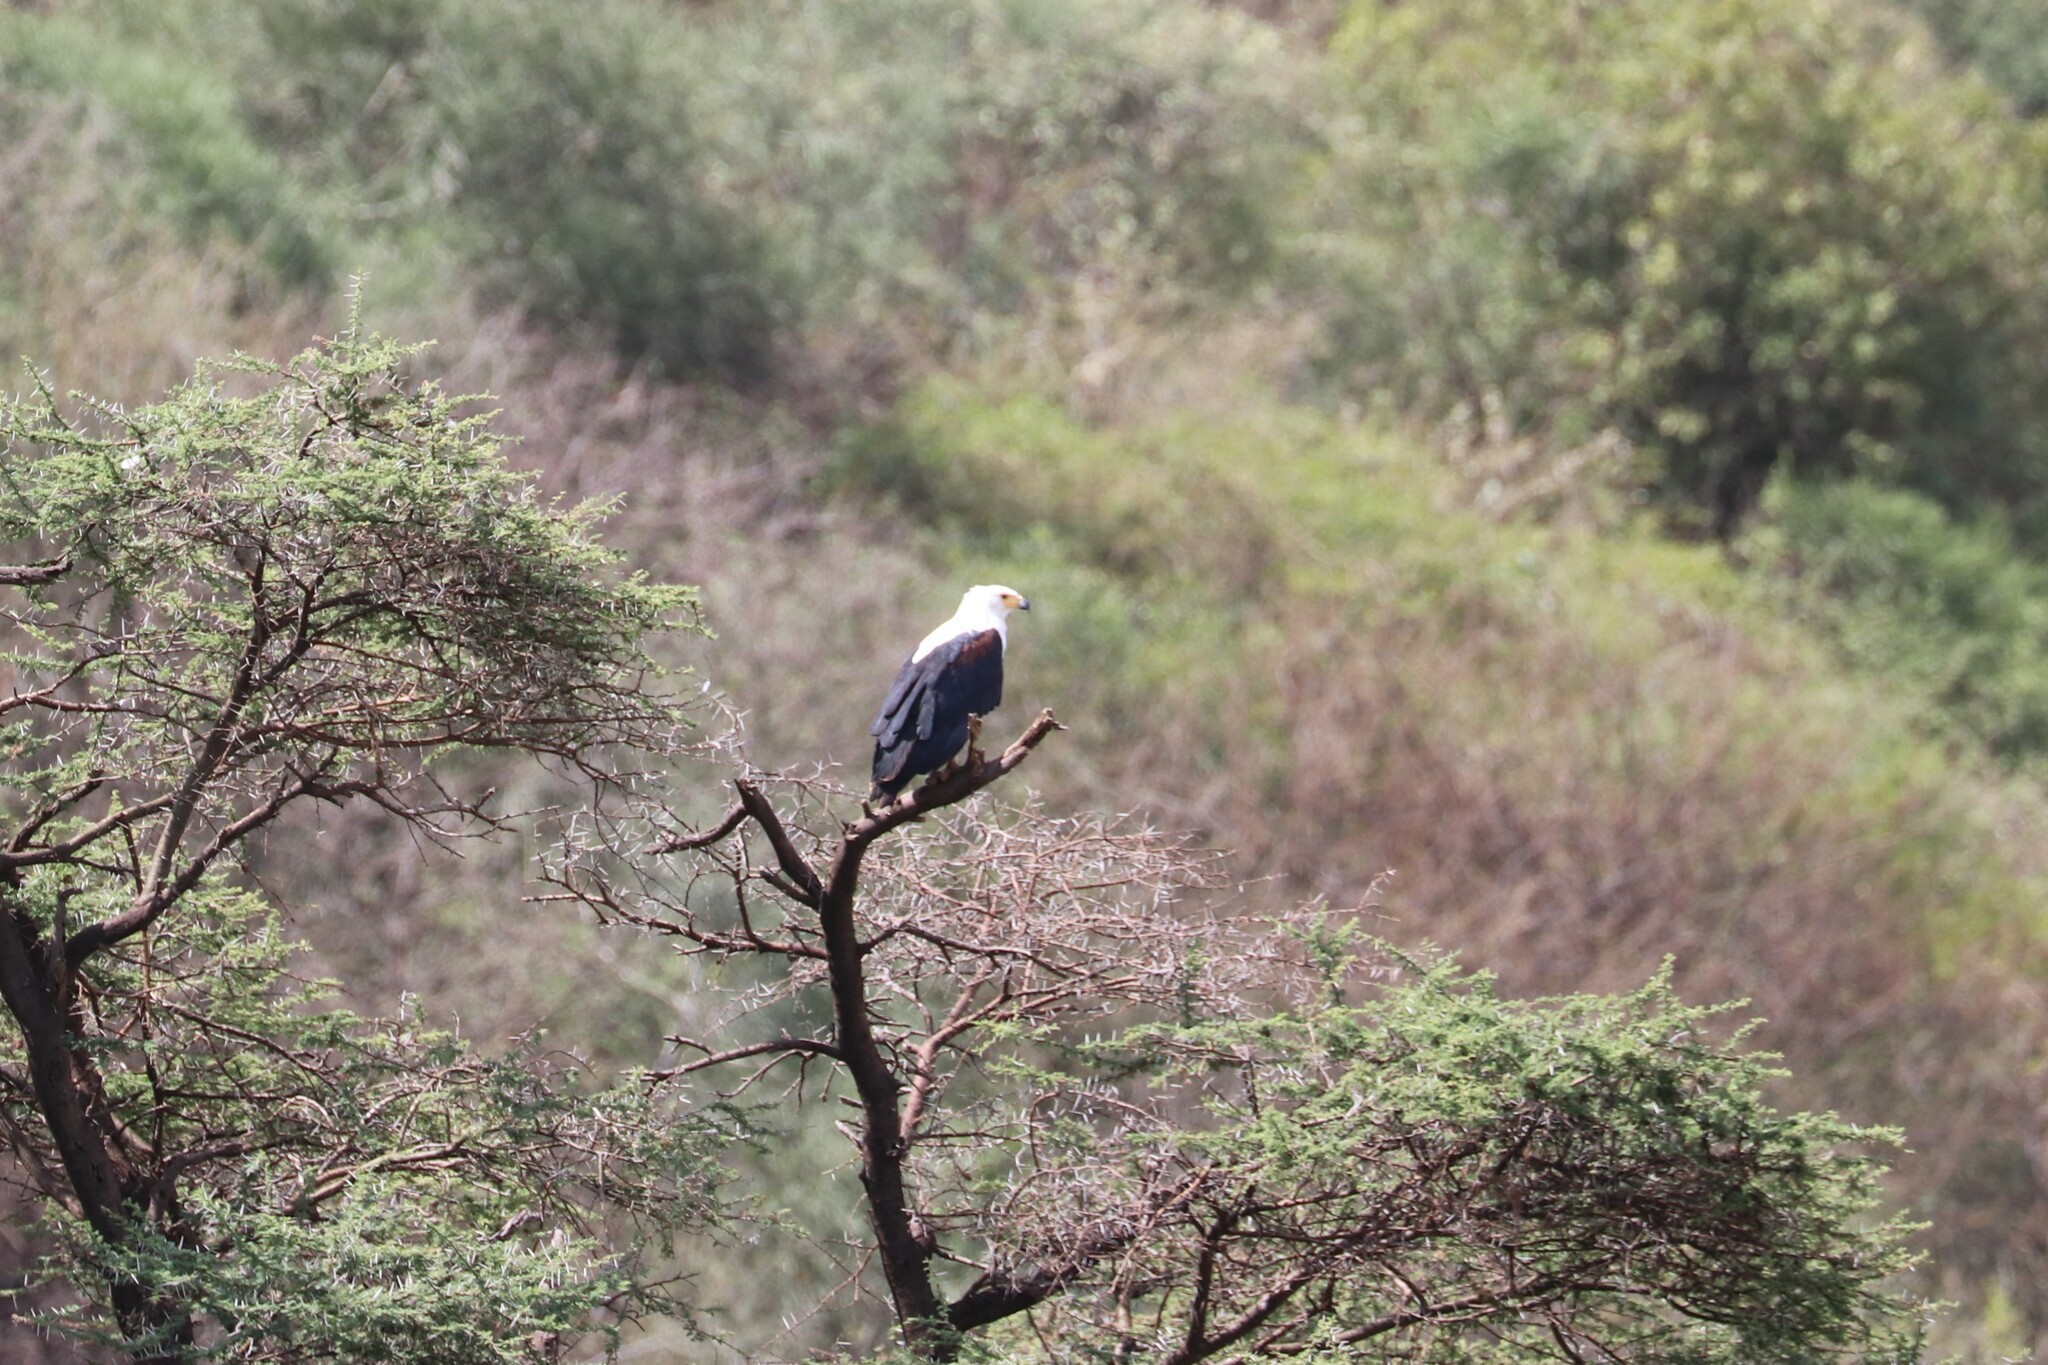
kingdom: Animalia
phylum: Chordata
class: Aves
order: Accipitriformes
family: Accipitridae
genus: Haliaeetus
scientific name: Haliaeetus vocifer
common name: African fish eagle
